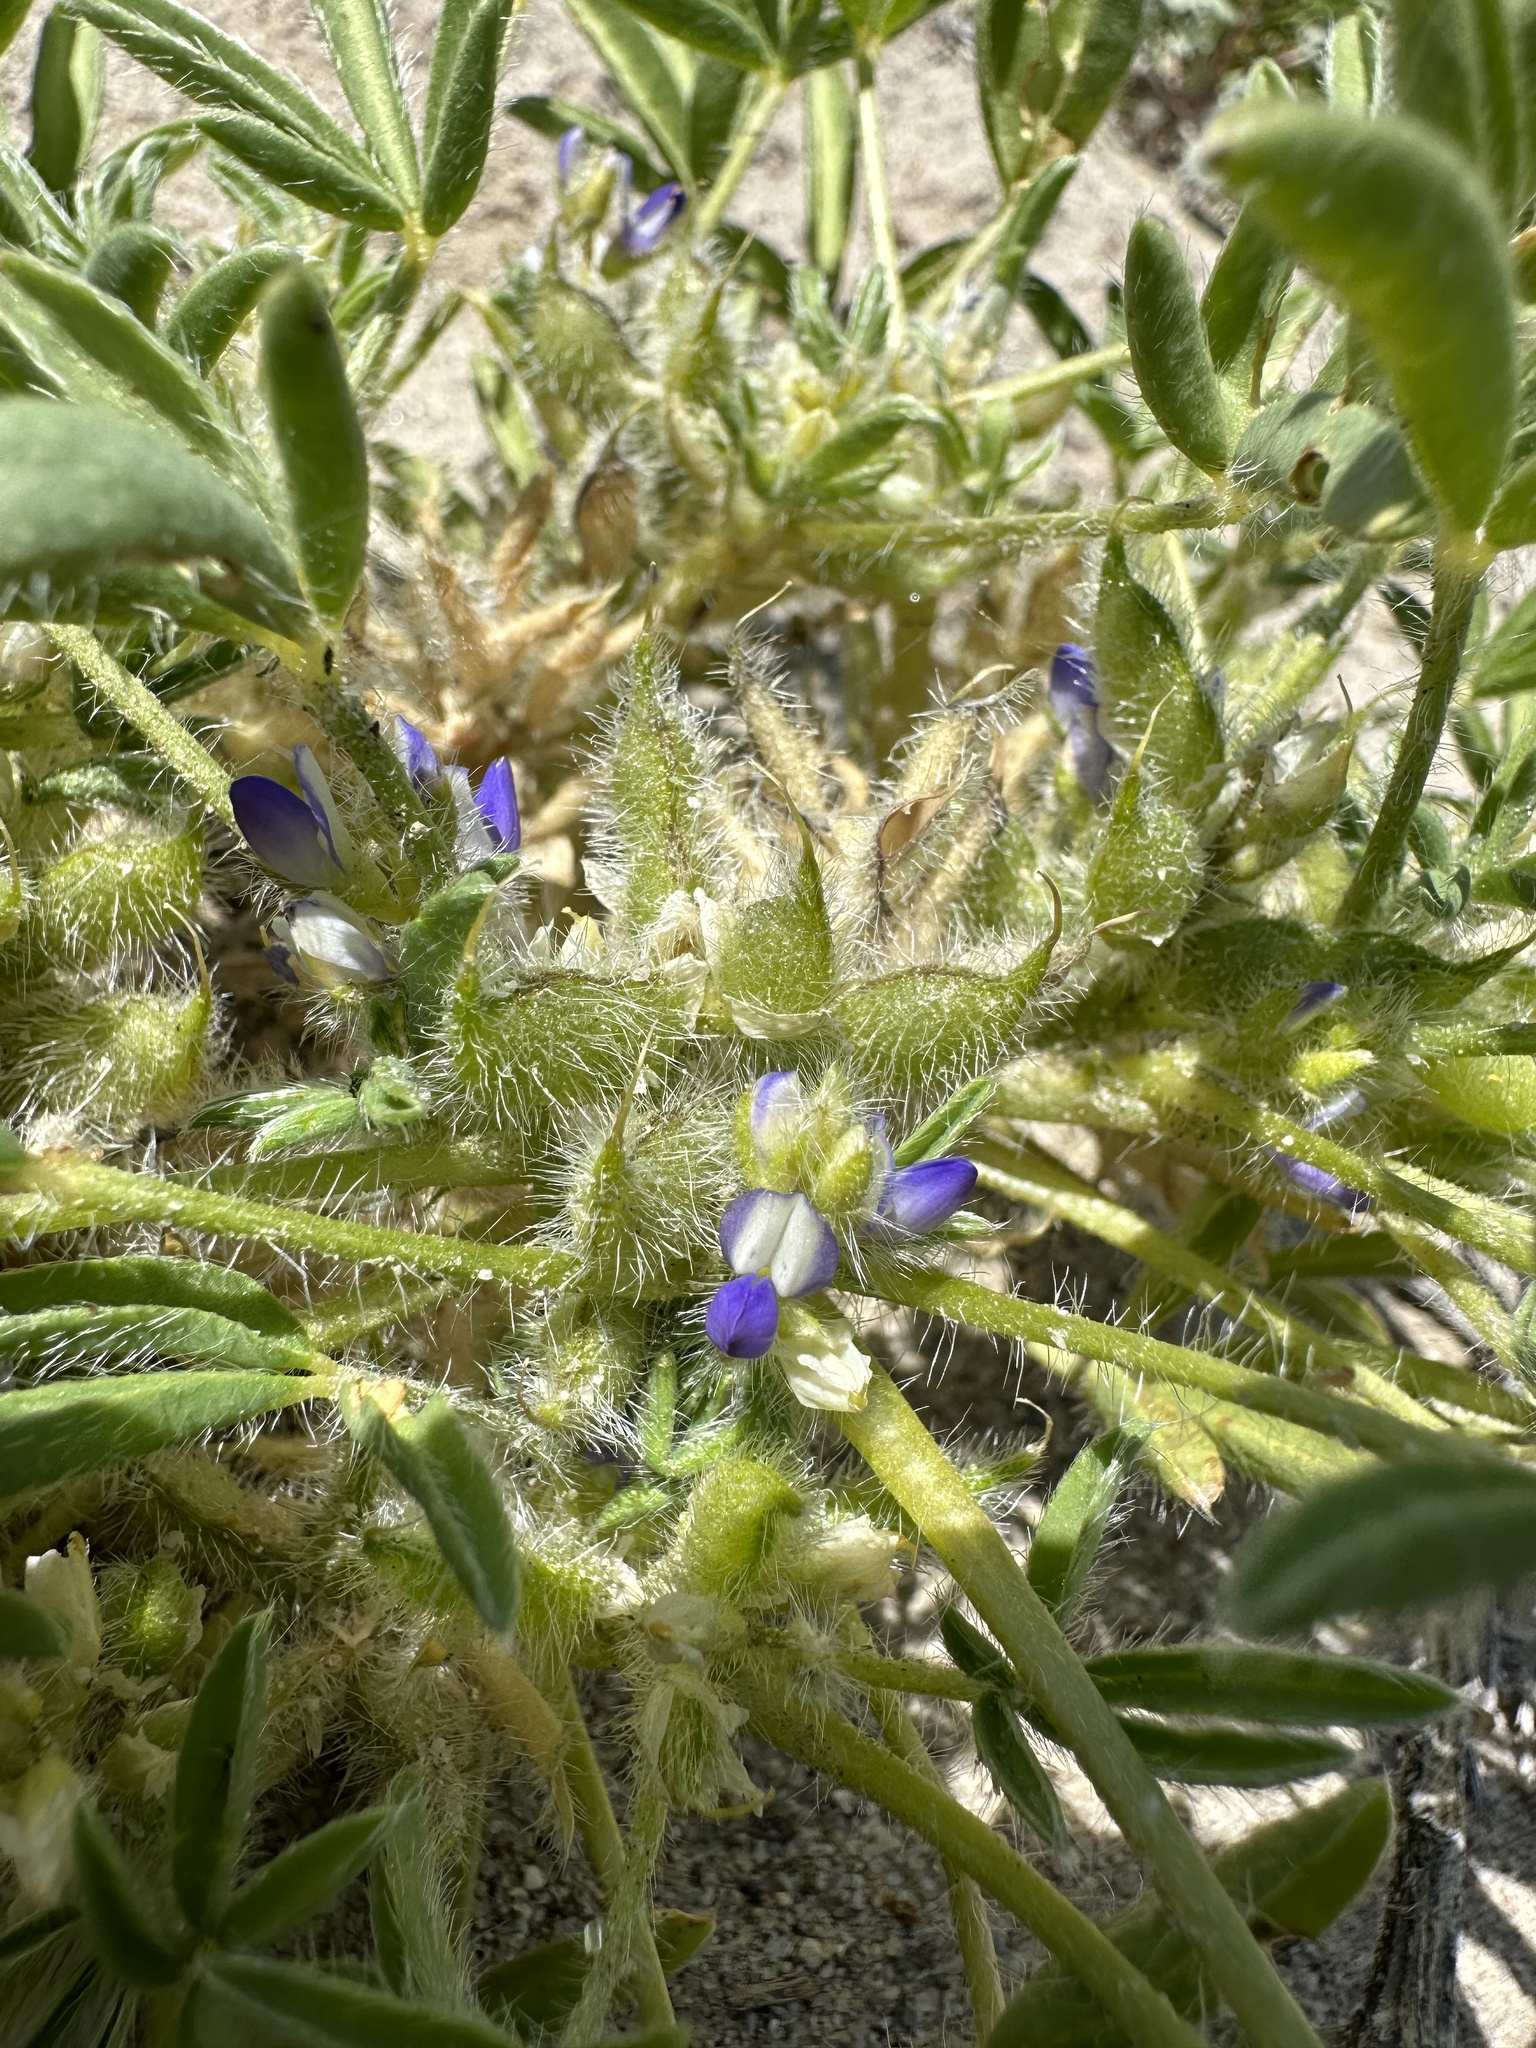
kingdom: Plantae
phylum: Tracheophyta
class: Magnoliopsida
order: Fabales
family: Fabaceae
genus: Lupinus
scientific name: Lupinus pusillus
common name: Low lupine
